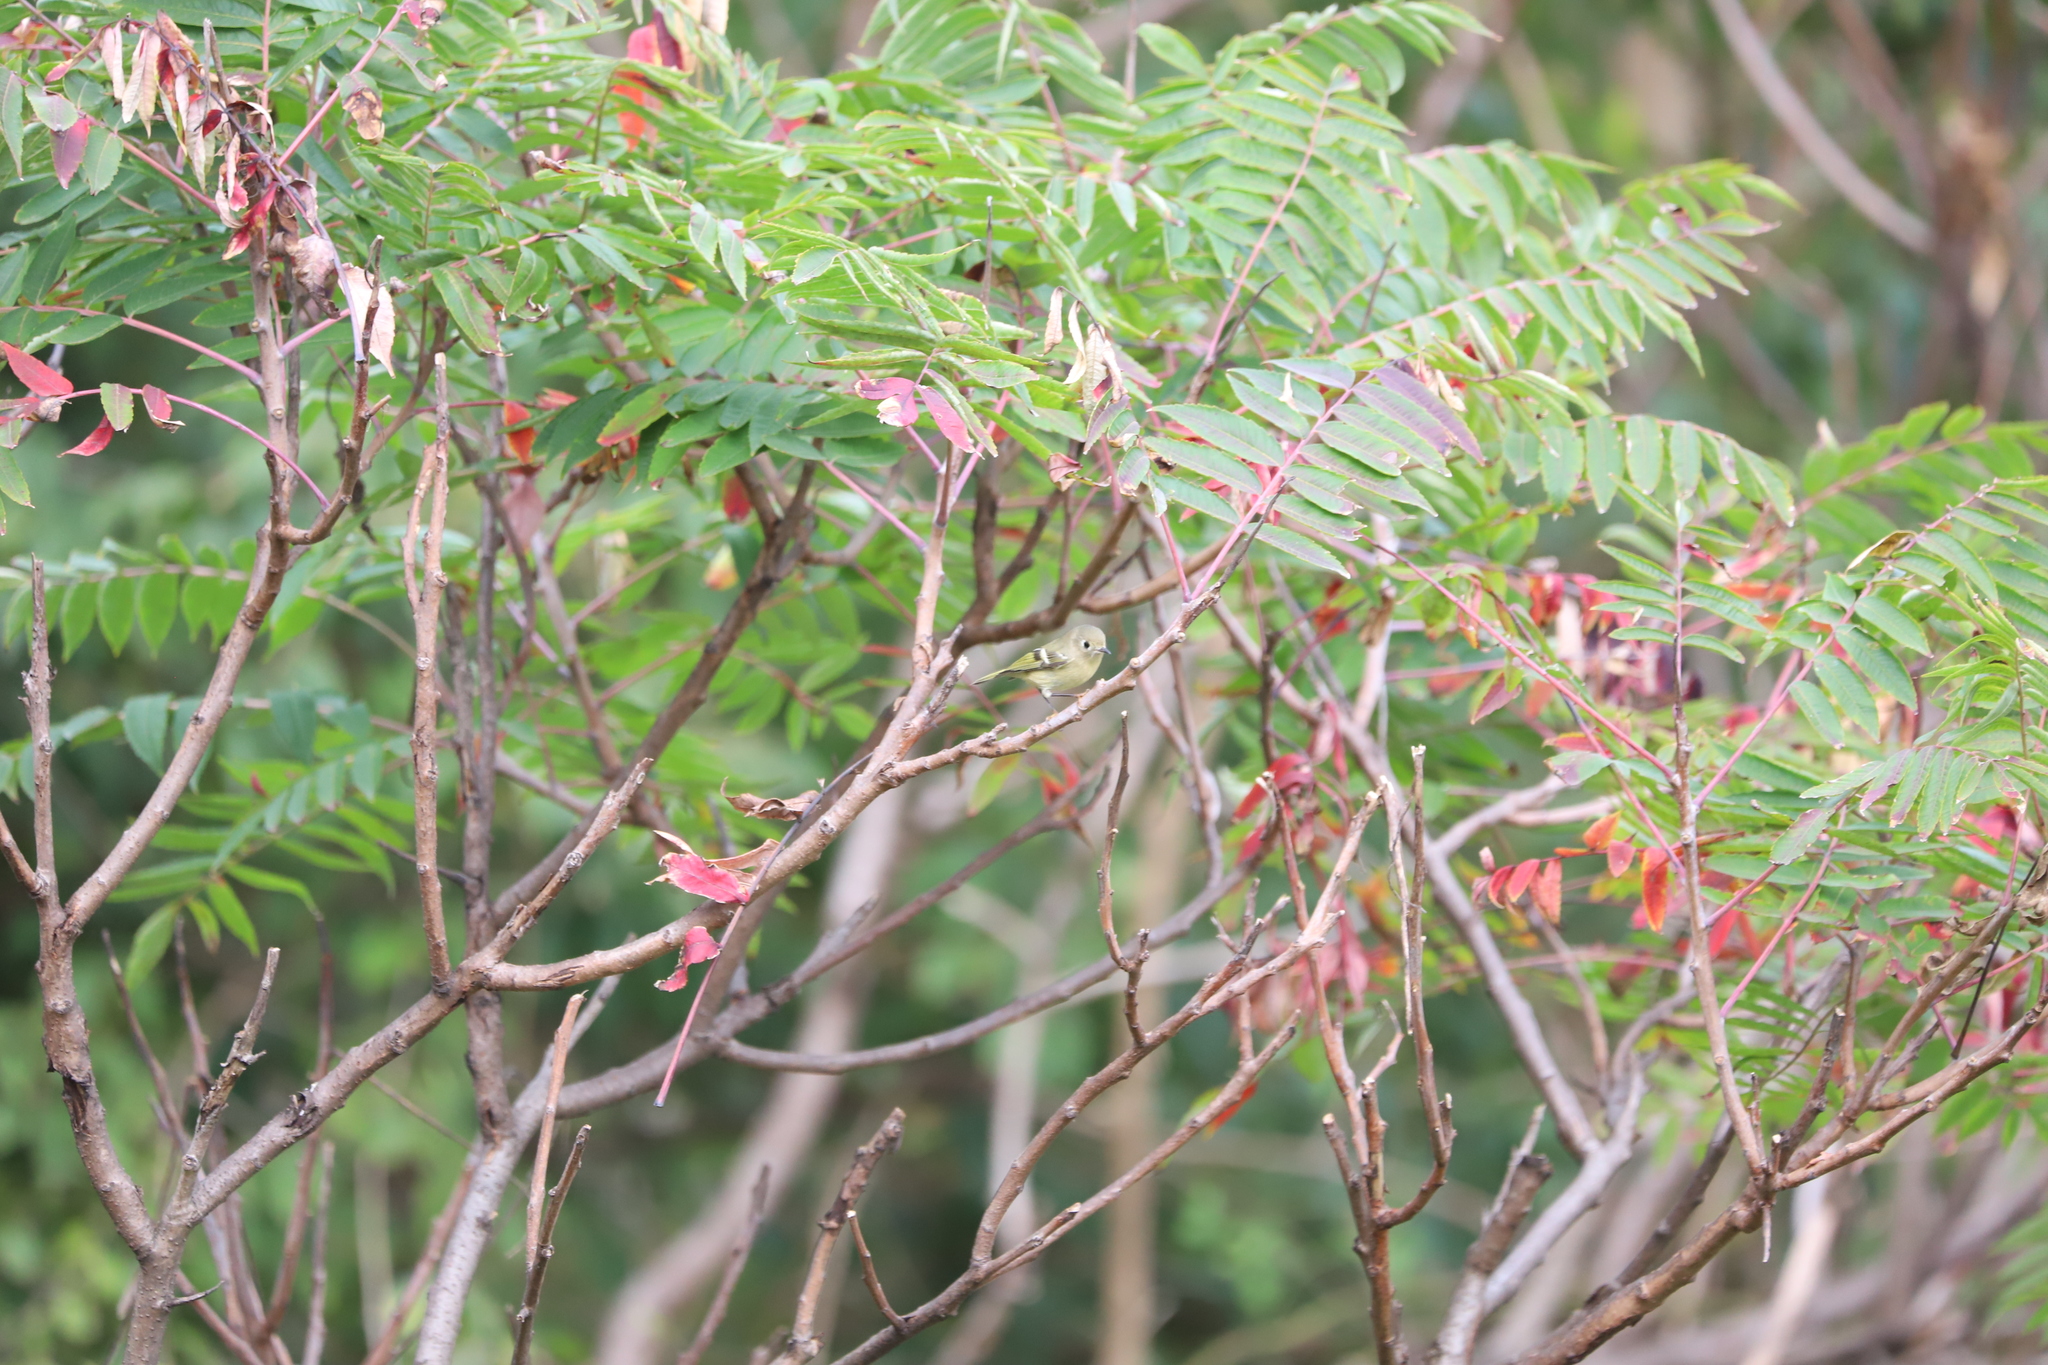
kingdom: Plantae
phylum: Tracheophyta
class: Magnoliopsida
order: Sapindales
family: Anacardiaceae
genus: Rhus
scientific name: Rhus glabra
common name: Scarlet sumac
